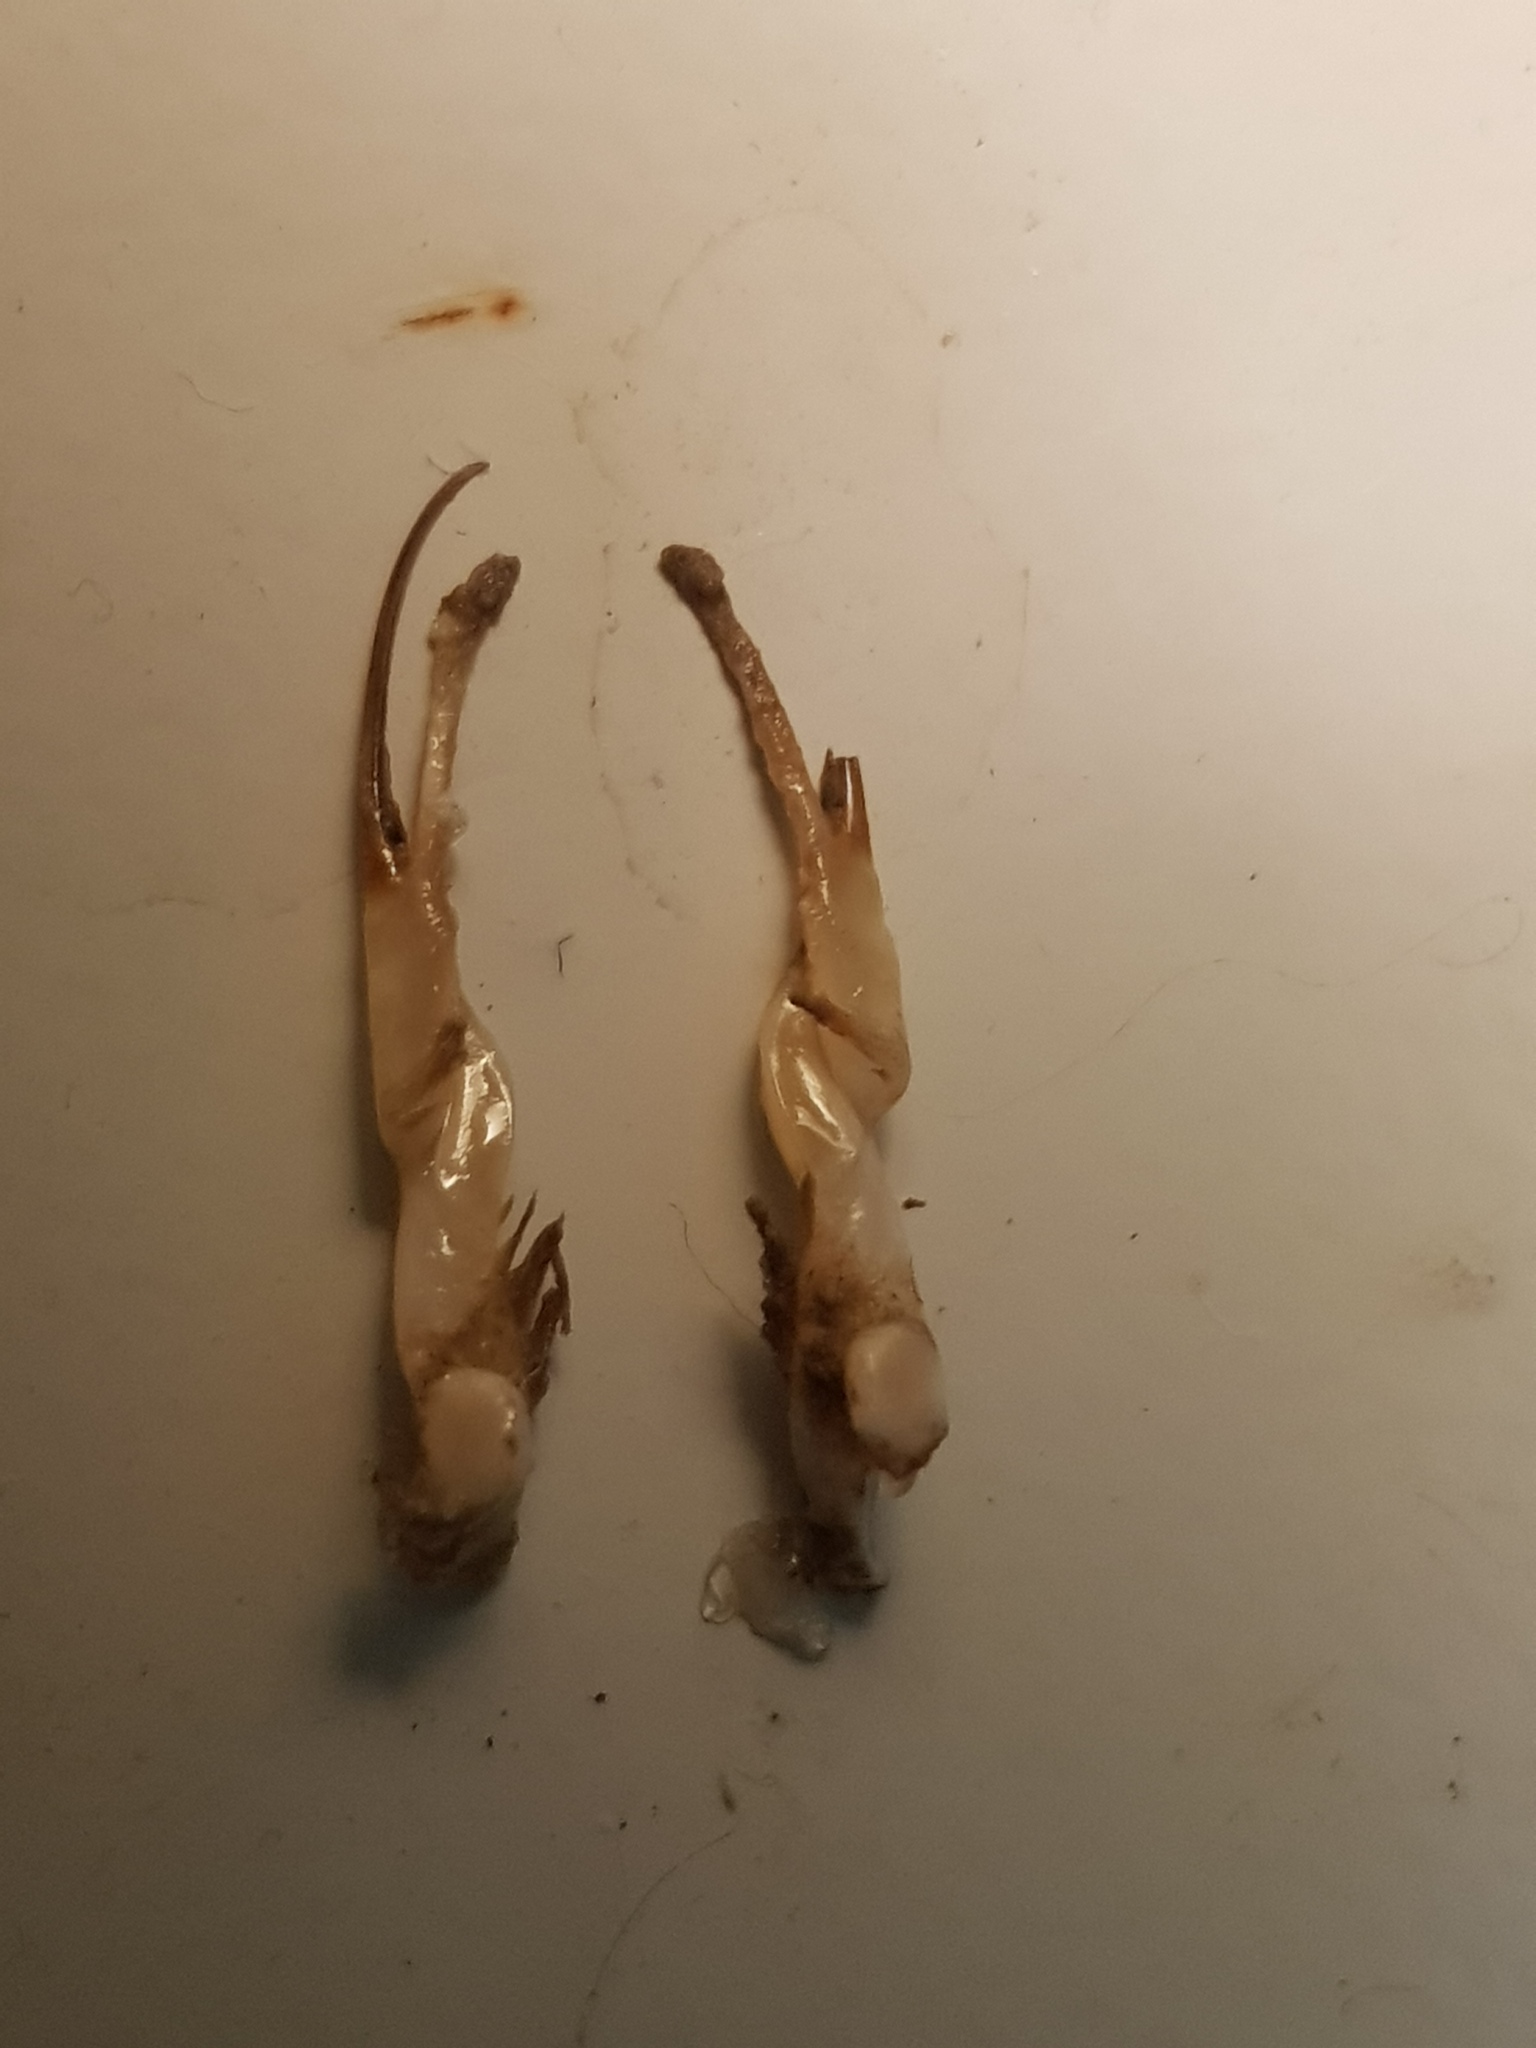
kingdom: Animalia
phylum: Arthropoda
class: Malacostraca
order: Decapoda
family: Cambaridae
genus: Faxonius
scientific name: Faxonius virilis
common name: Virile crayfish
